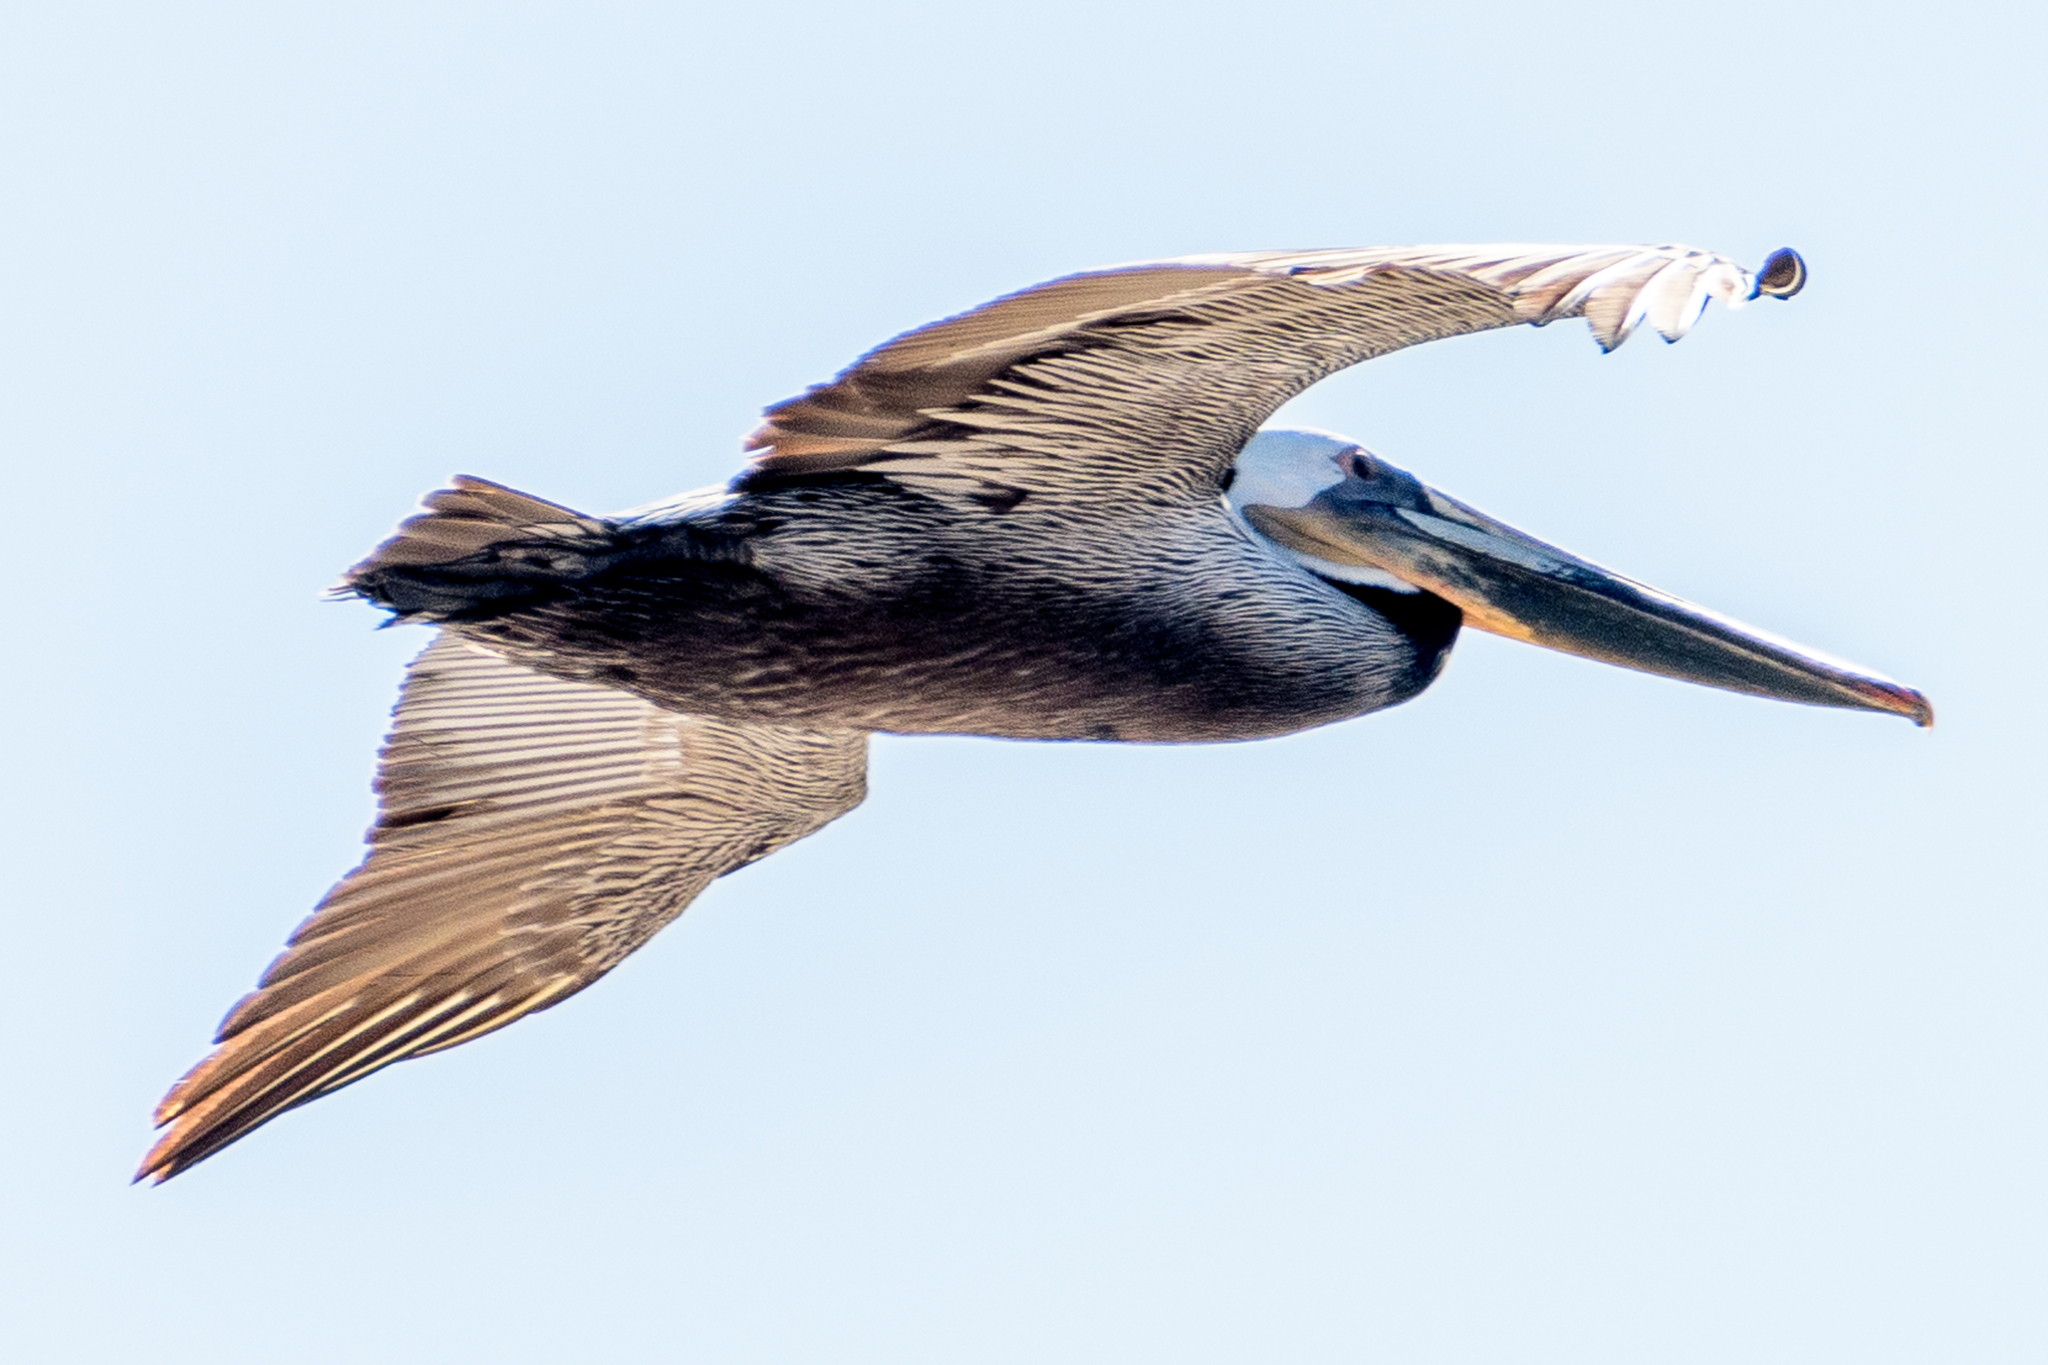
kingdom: Animalia
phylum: Chordata
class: Aves
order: Pelecaniformes
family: Pelecanidae
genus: Pelecanus
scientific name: Pelecanus occidentalis
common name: Brown pelican
